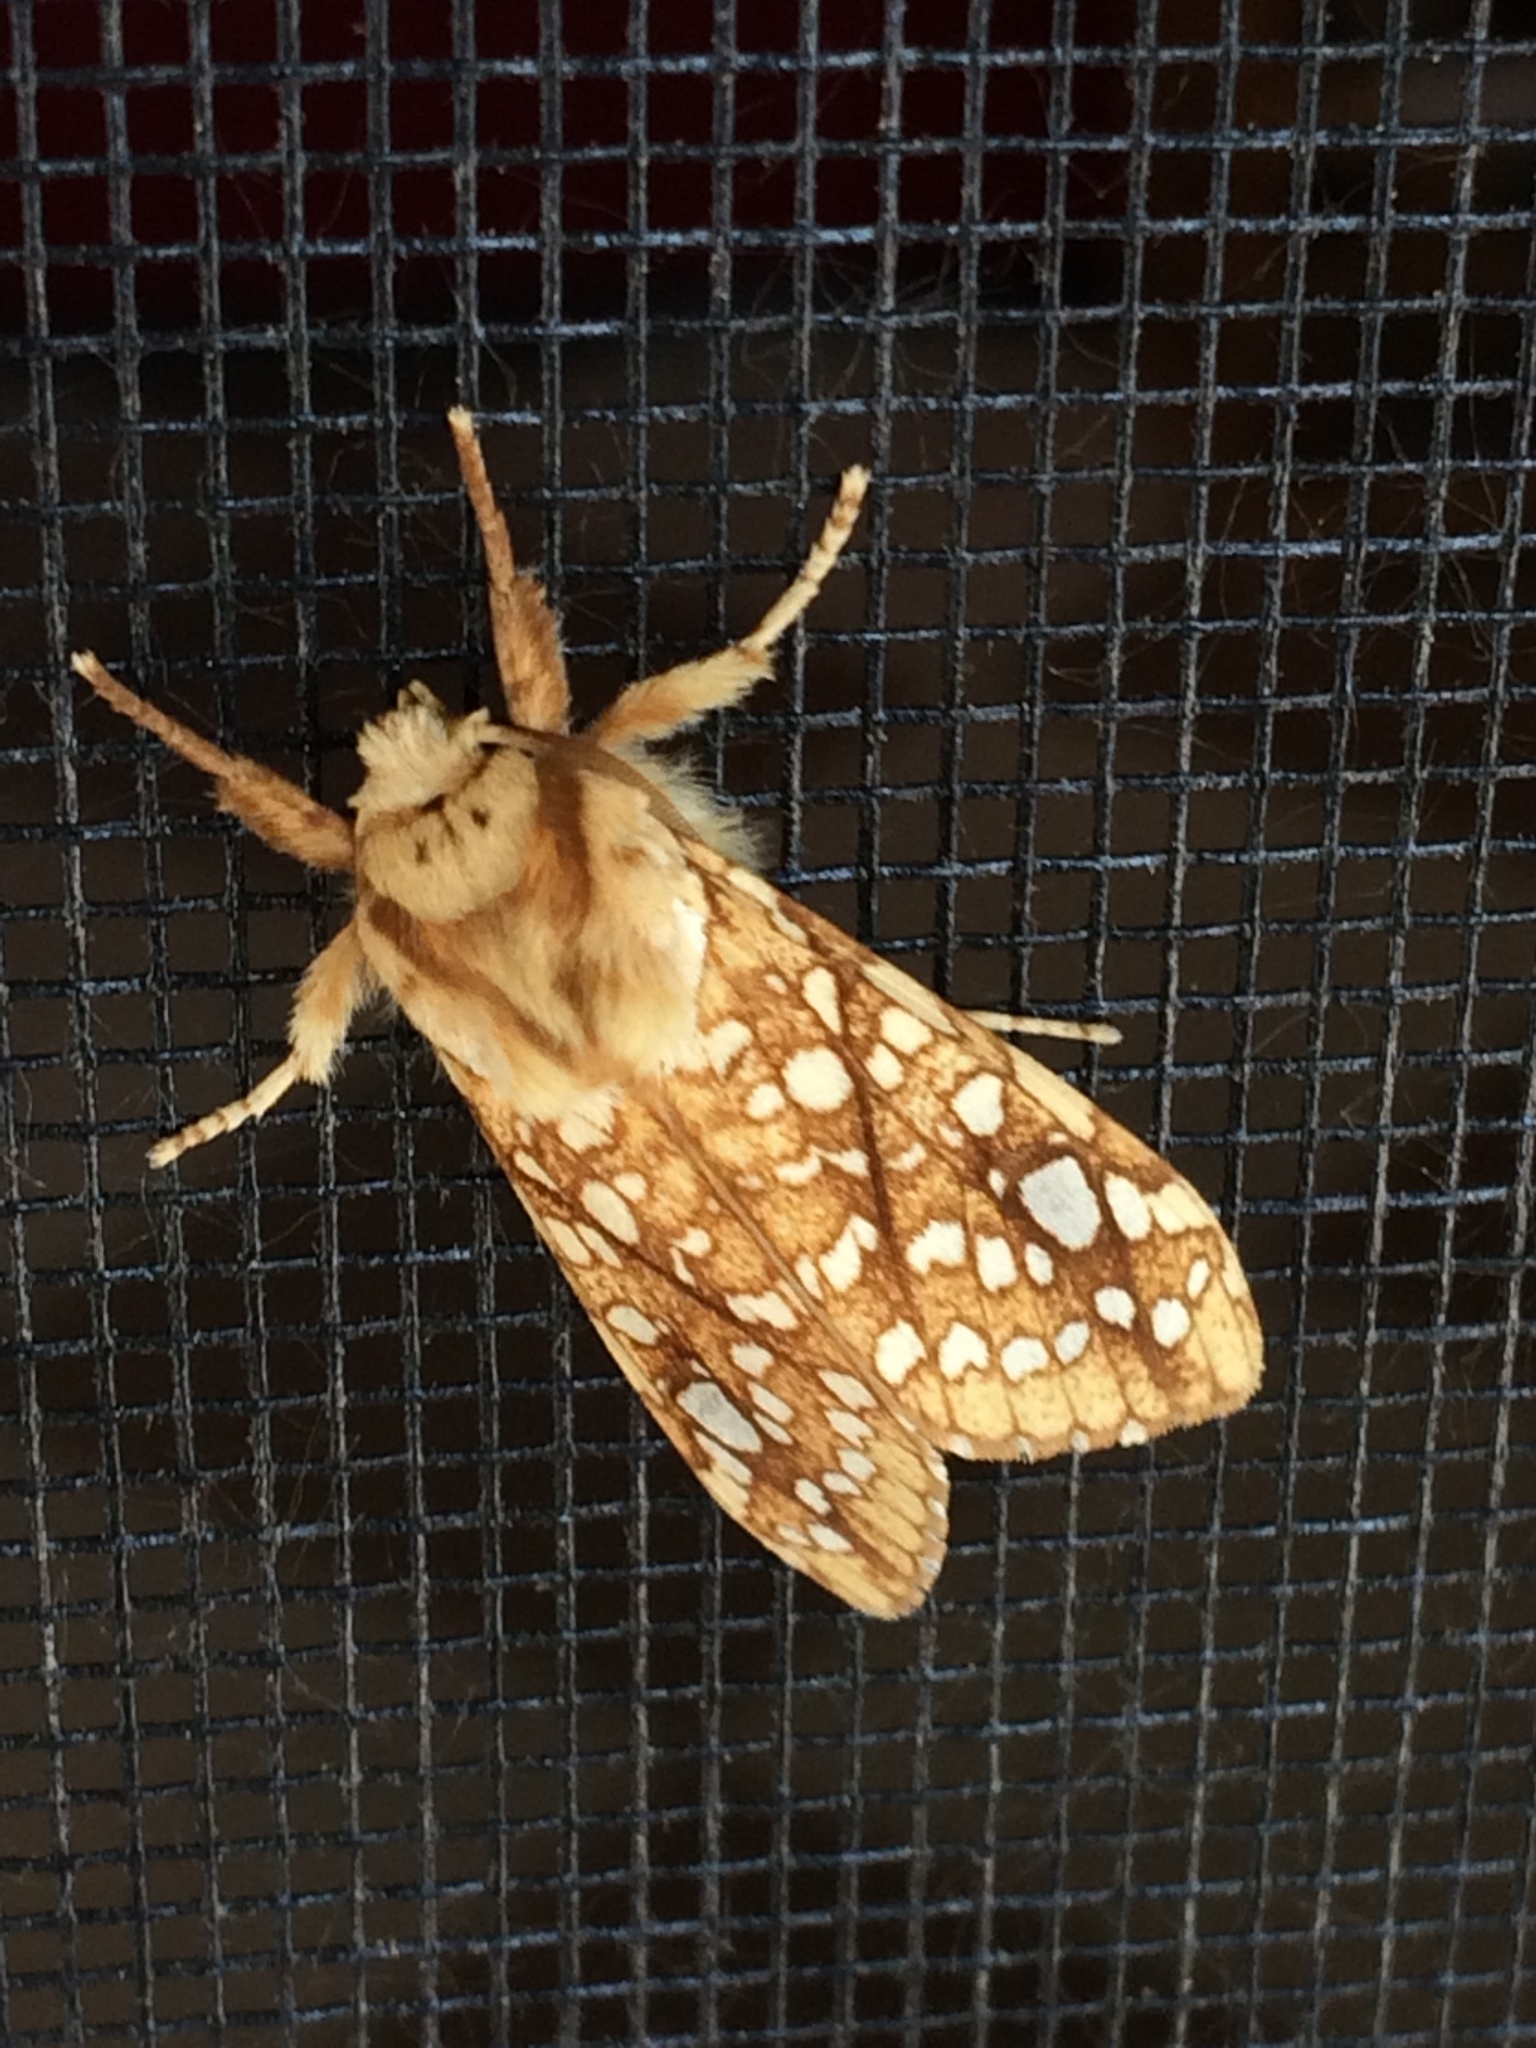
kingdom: Animalia
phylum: Arthropoda
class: Insecta
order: Lepidoptera
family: Erebidae
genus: Lophocampa
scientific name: Lophocampa caryae
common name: Hickory tussock moth
